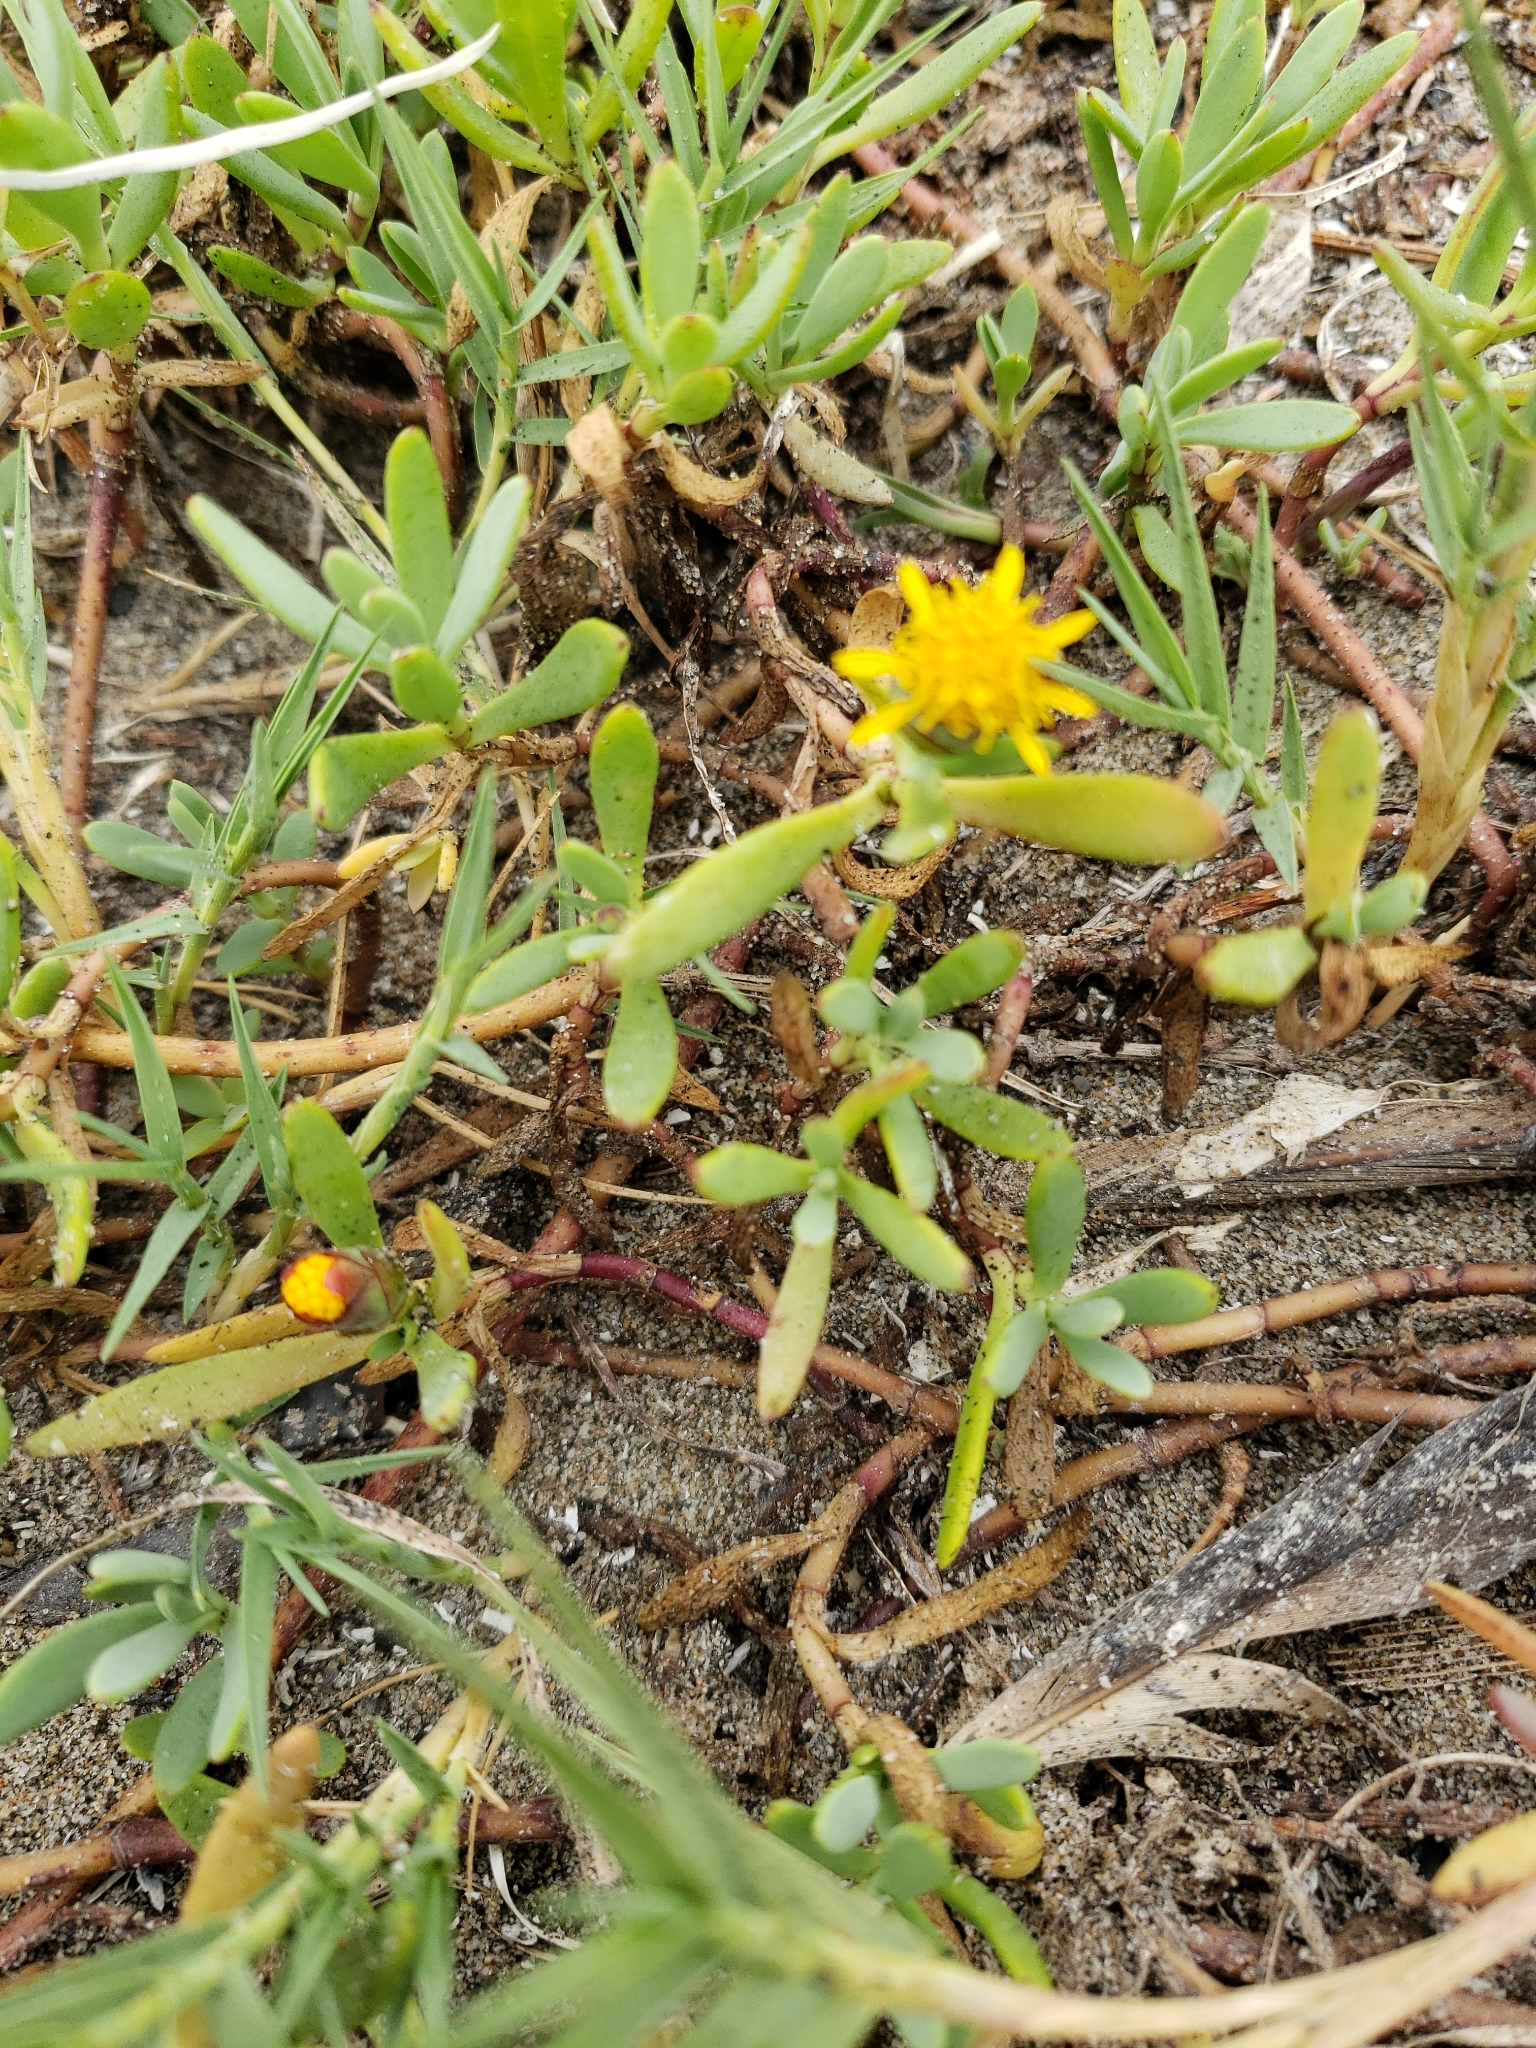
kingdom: Plantae
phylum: Tracheophyta
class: Magnoliopsida
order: Asterales
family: Asteraceae
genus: Jaumea
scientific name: Jaumea carnosa
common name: Fleshy jaumea
